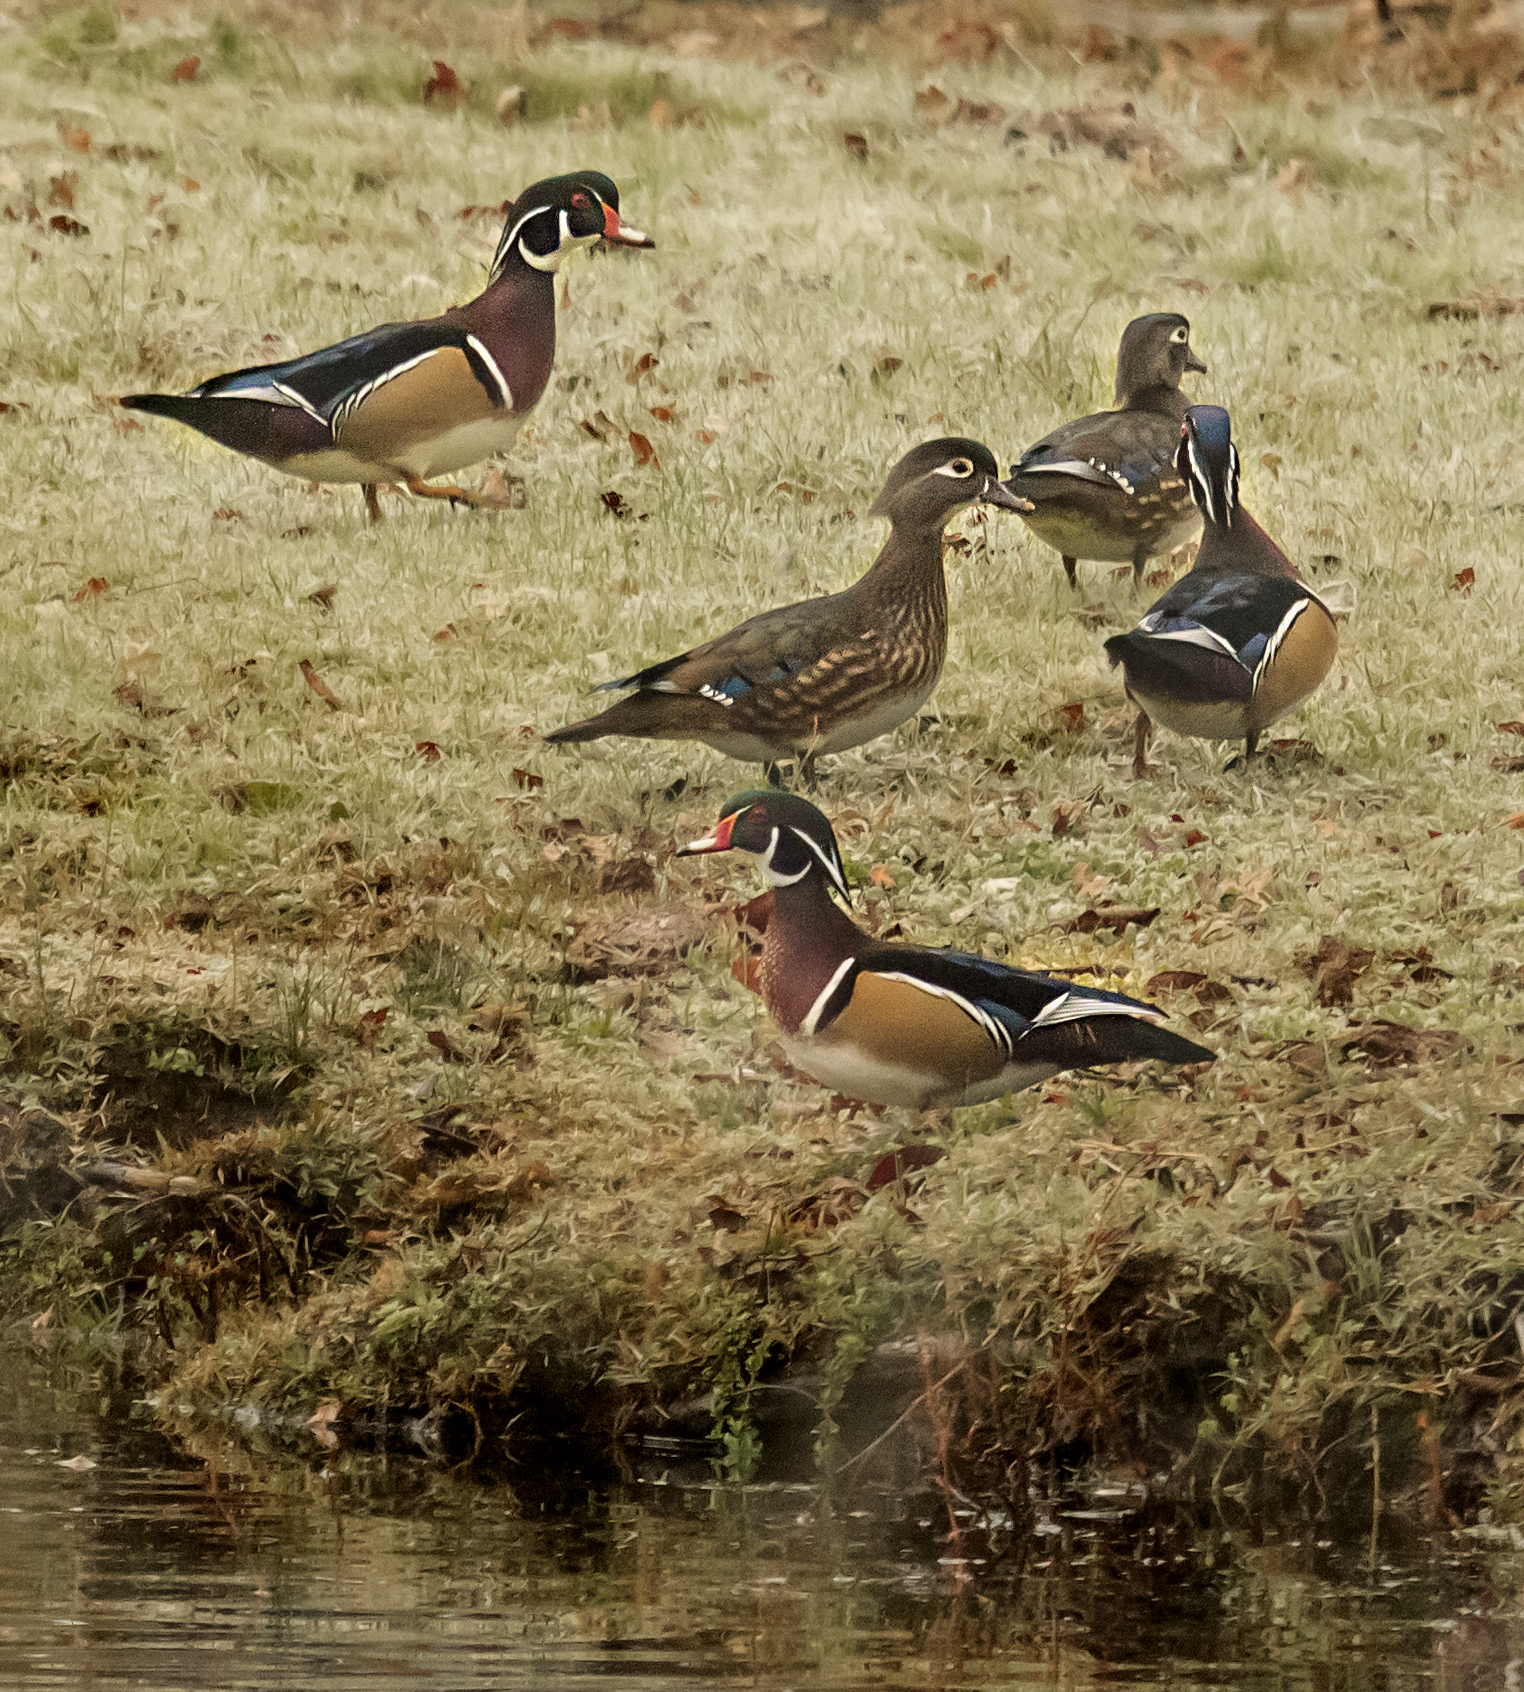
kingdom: Animalia
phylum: Chordata
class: Aves
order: Anseriformes
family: Anatidae
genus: Aix
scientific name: Aix sponsa
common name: Wood duck
